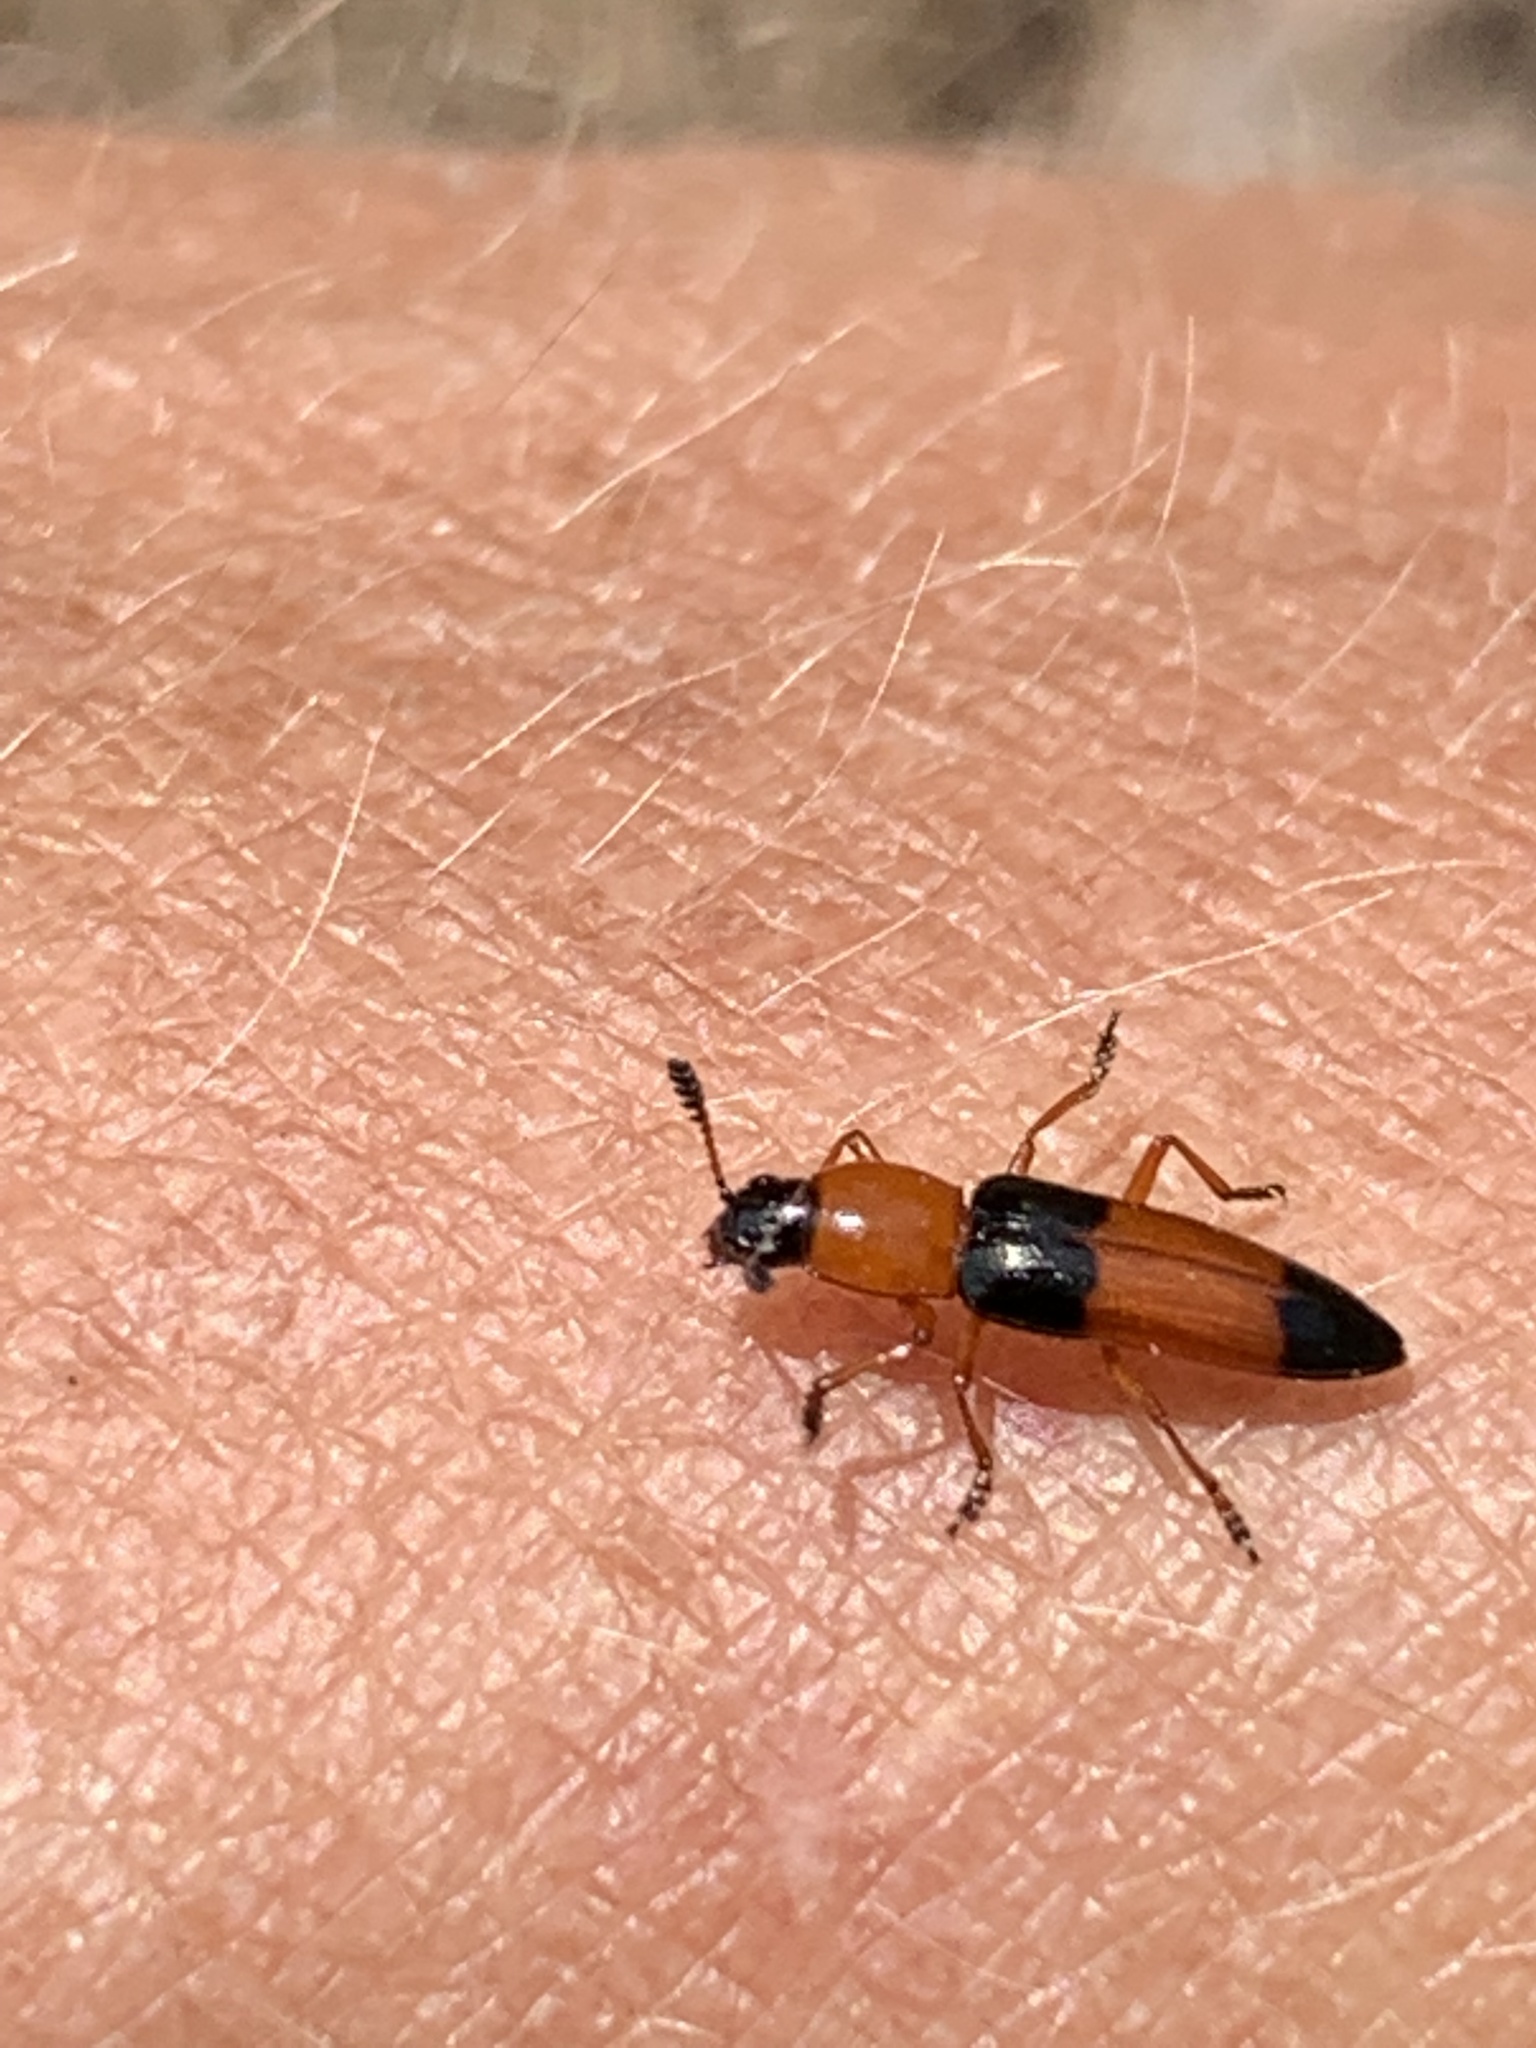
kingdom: Animalia
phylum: Arthropoda
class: Insecta
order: Coleoptera
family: Erotylidae
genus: Languria
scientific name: Languria trifasciata
